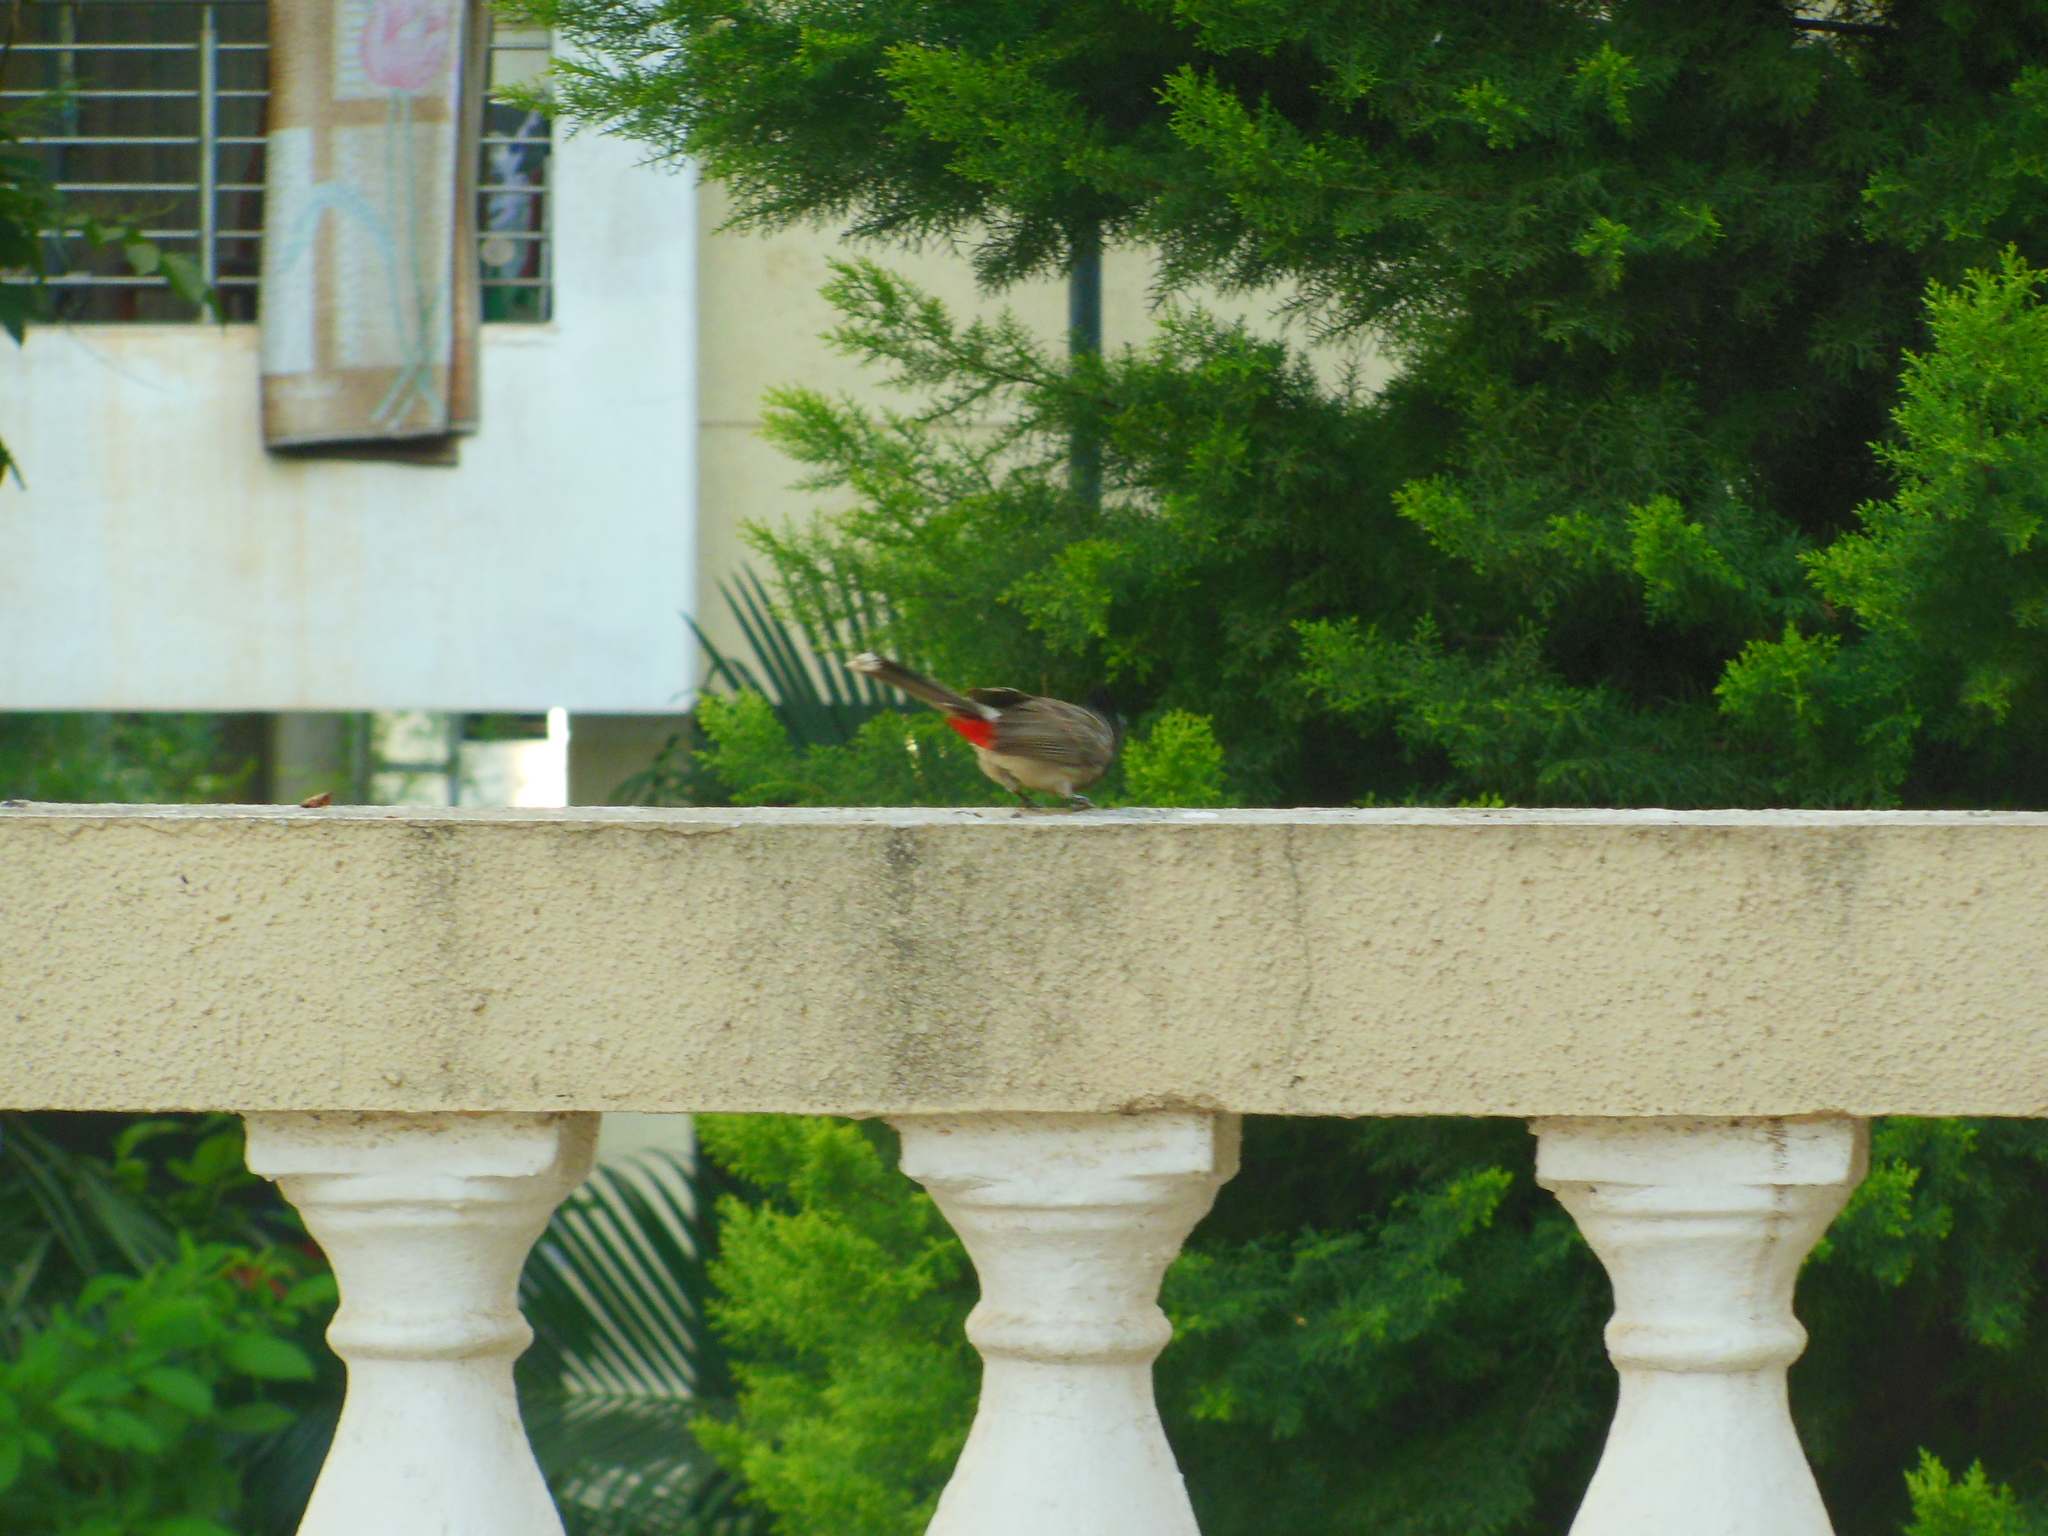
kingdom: Animalia
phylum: Chordata
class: Aves
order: Passeriformes
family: Pycnonotidae
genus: Pycnonotus
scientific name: Pycnonotus cafer
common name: Red-vented bulbul
